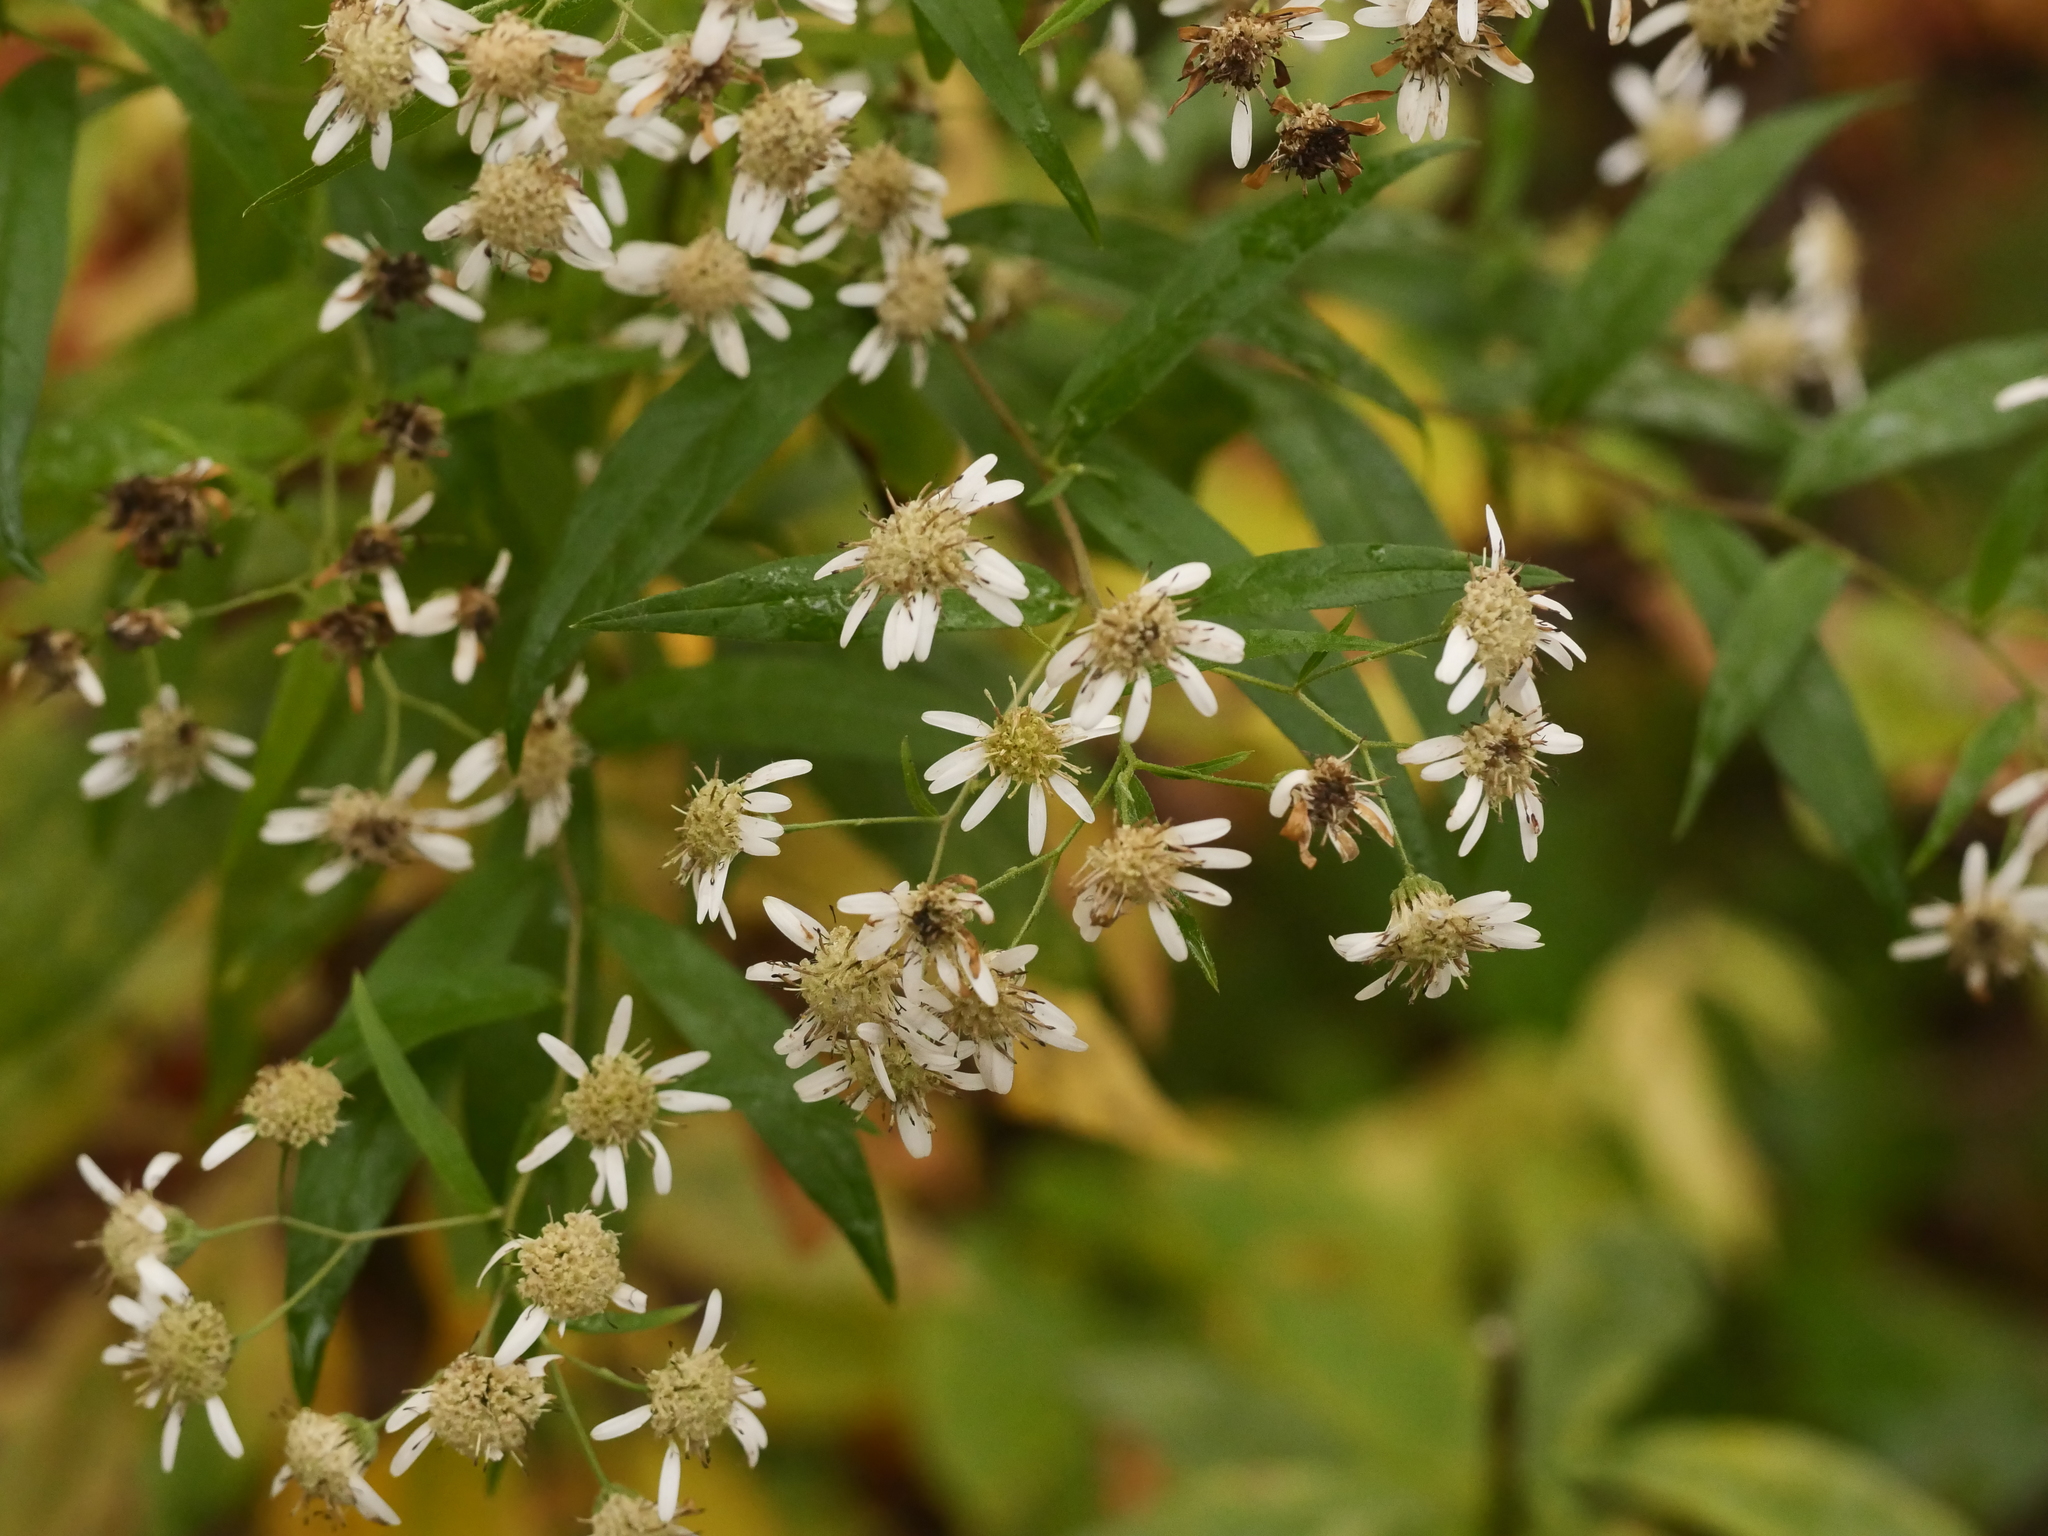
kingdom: Plantae
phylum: Tracheophyta
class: Magnoliopsida
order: Asterales
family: Asteraceae
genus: Doellingeria
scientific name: Doellingeria umbellata
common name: Flat-top white aster
